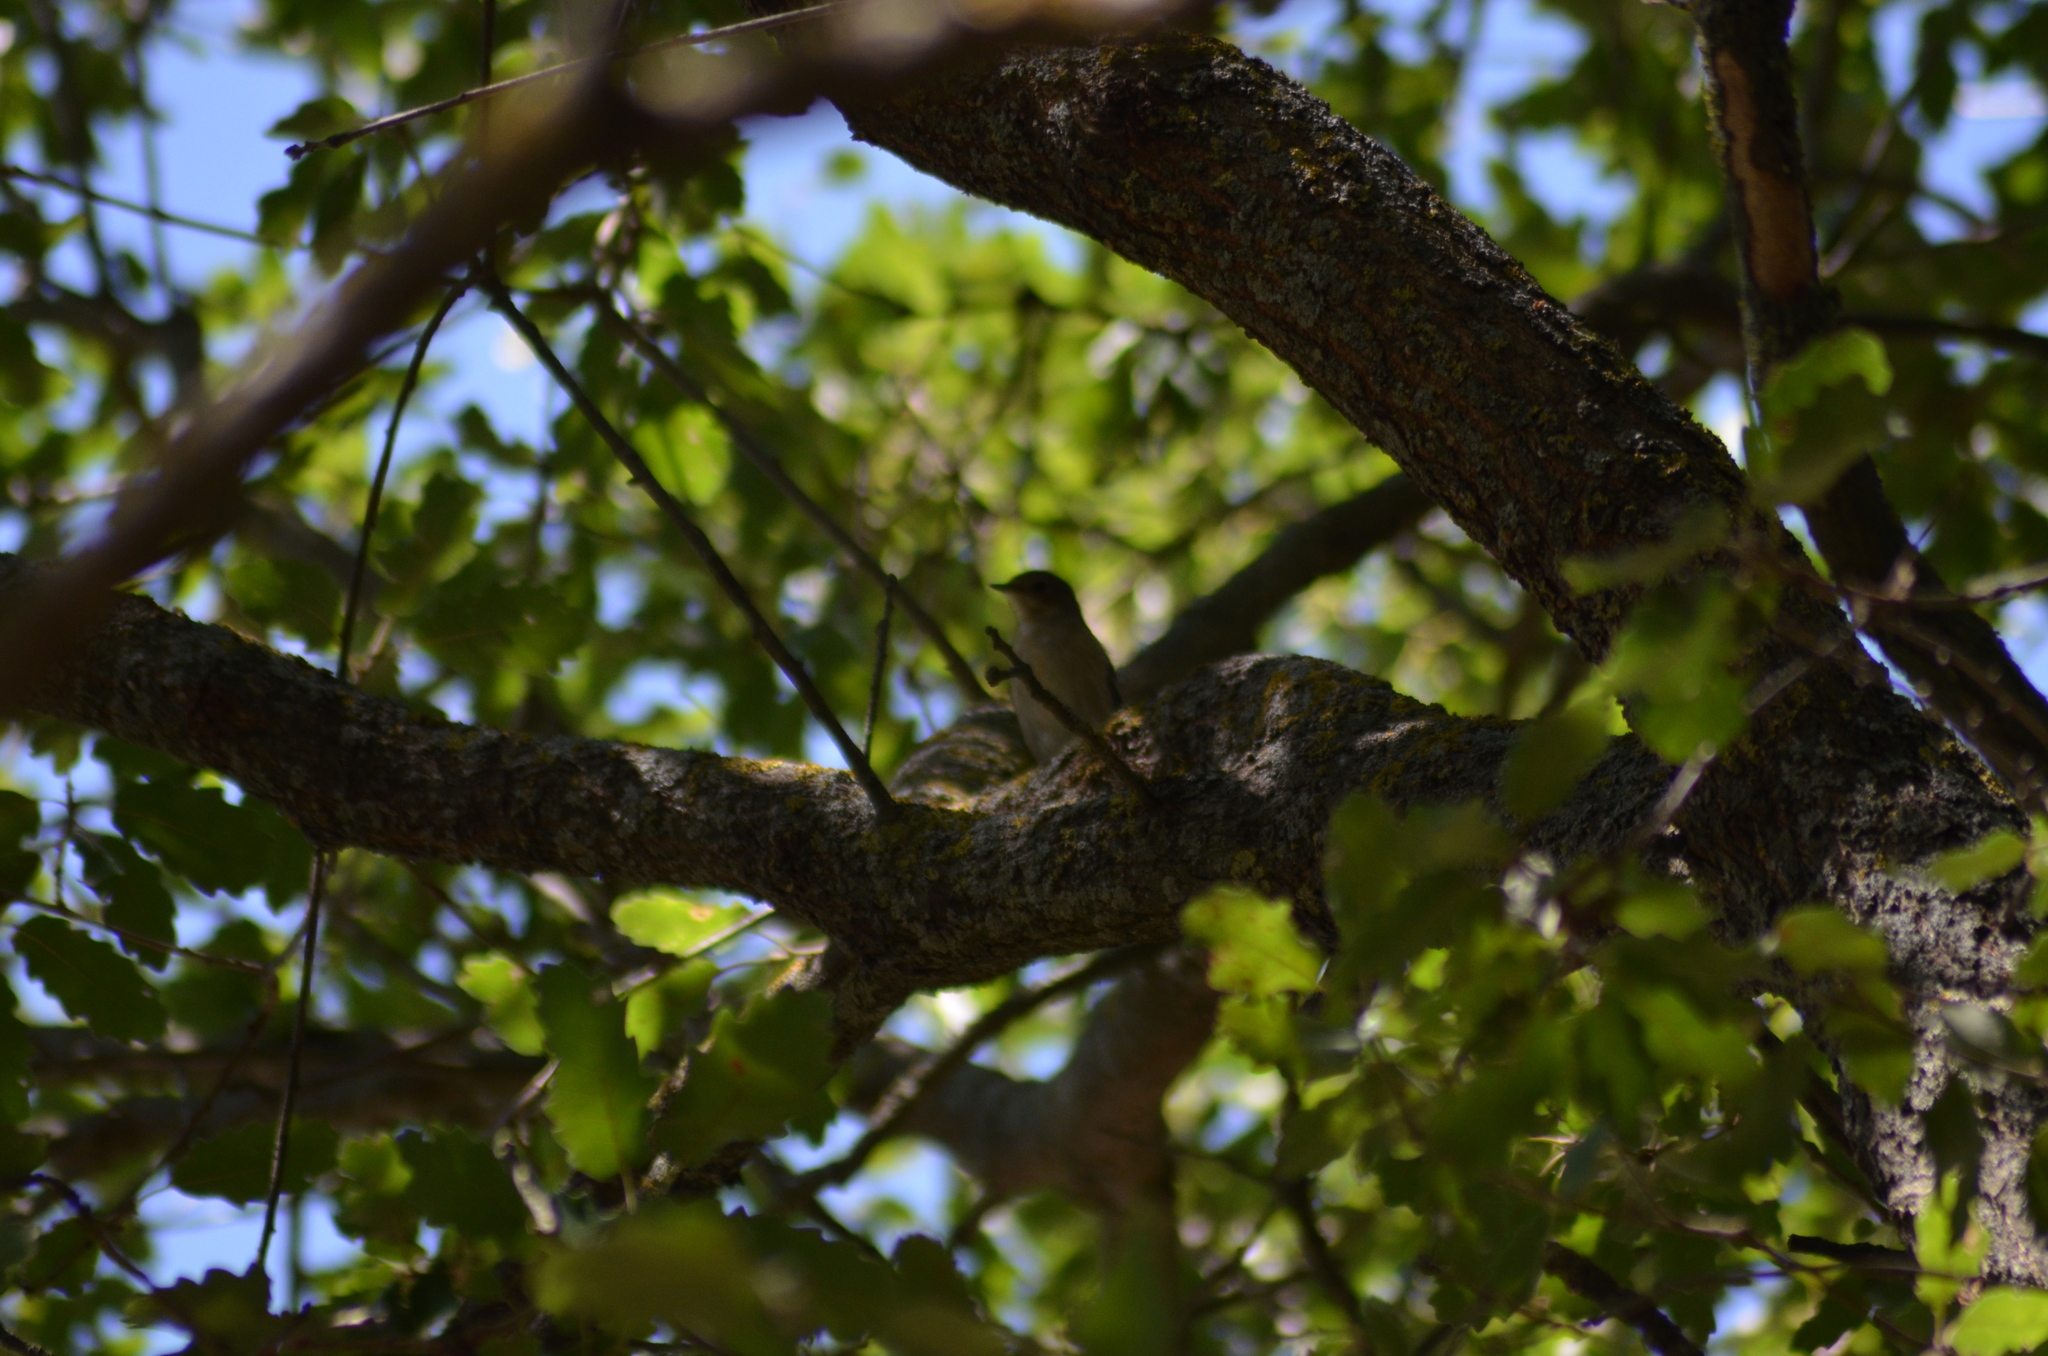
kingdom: Animalia
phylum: Chordata
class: Aves
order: Passeriformes
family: Muscicapidae
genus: Ficedula
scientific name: Ficedula hypoleuca
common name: European pied flycatcher
